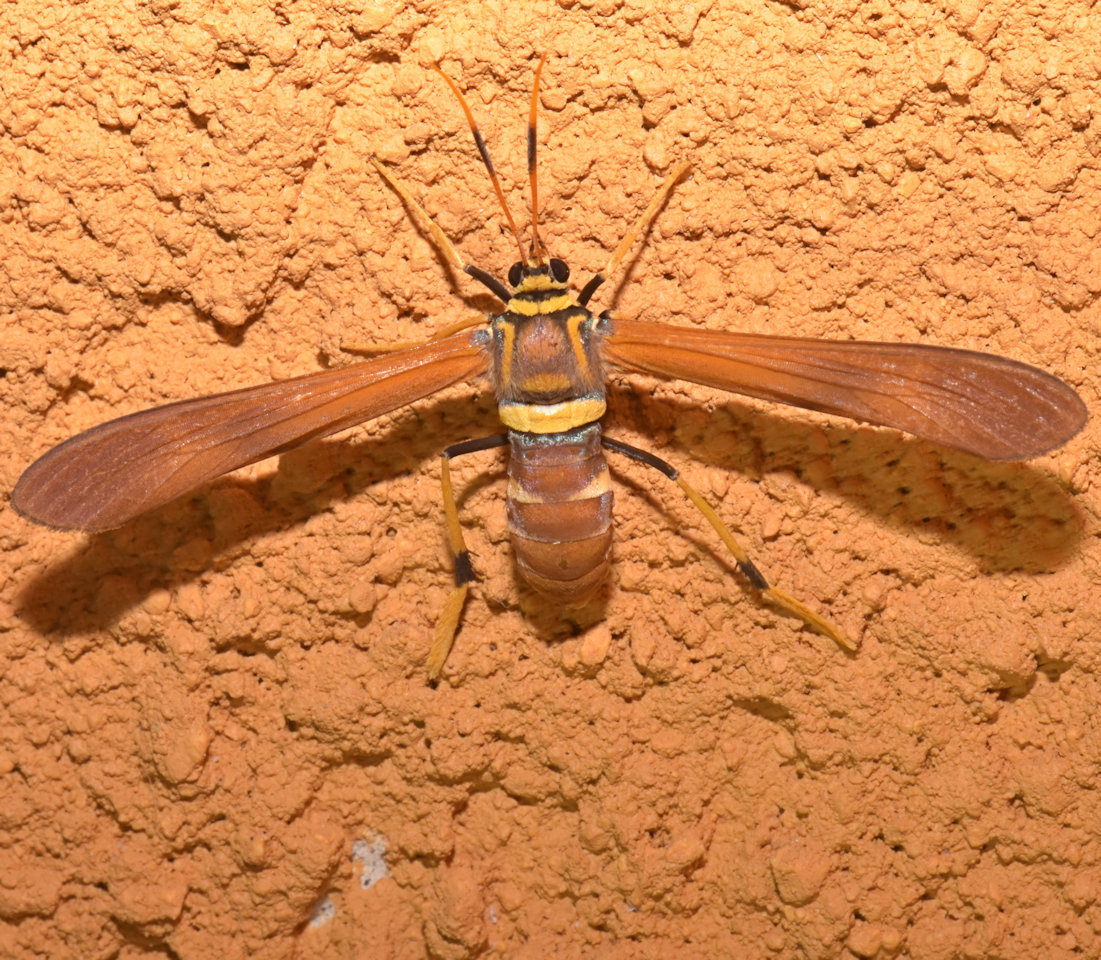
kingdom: Animalia
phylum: Arthropoda
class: Insecta
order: Lepidoptera
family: Erebidae
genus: Horama
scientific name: Horama grotei
